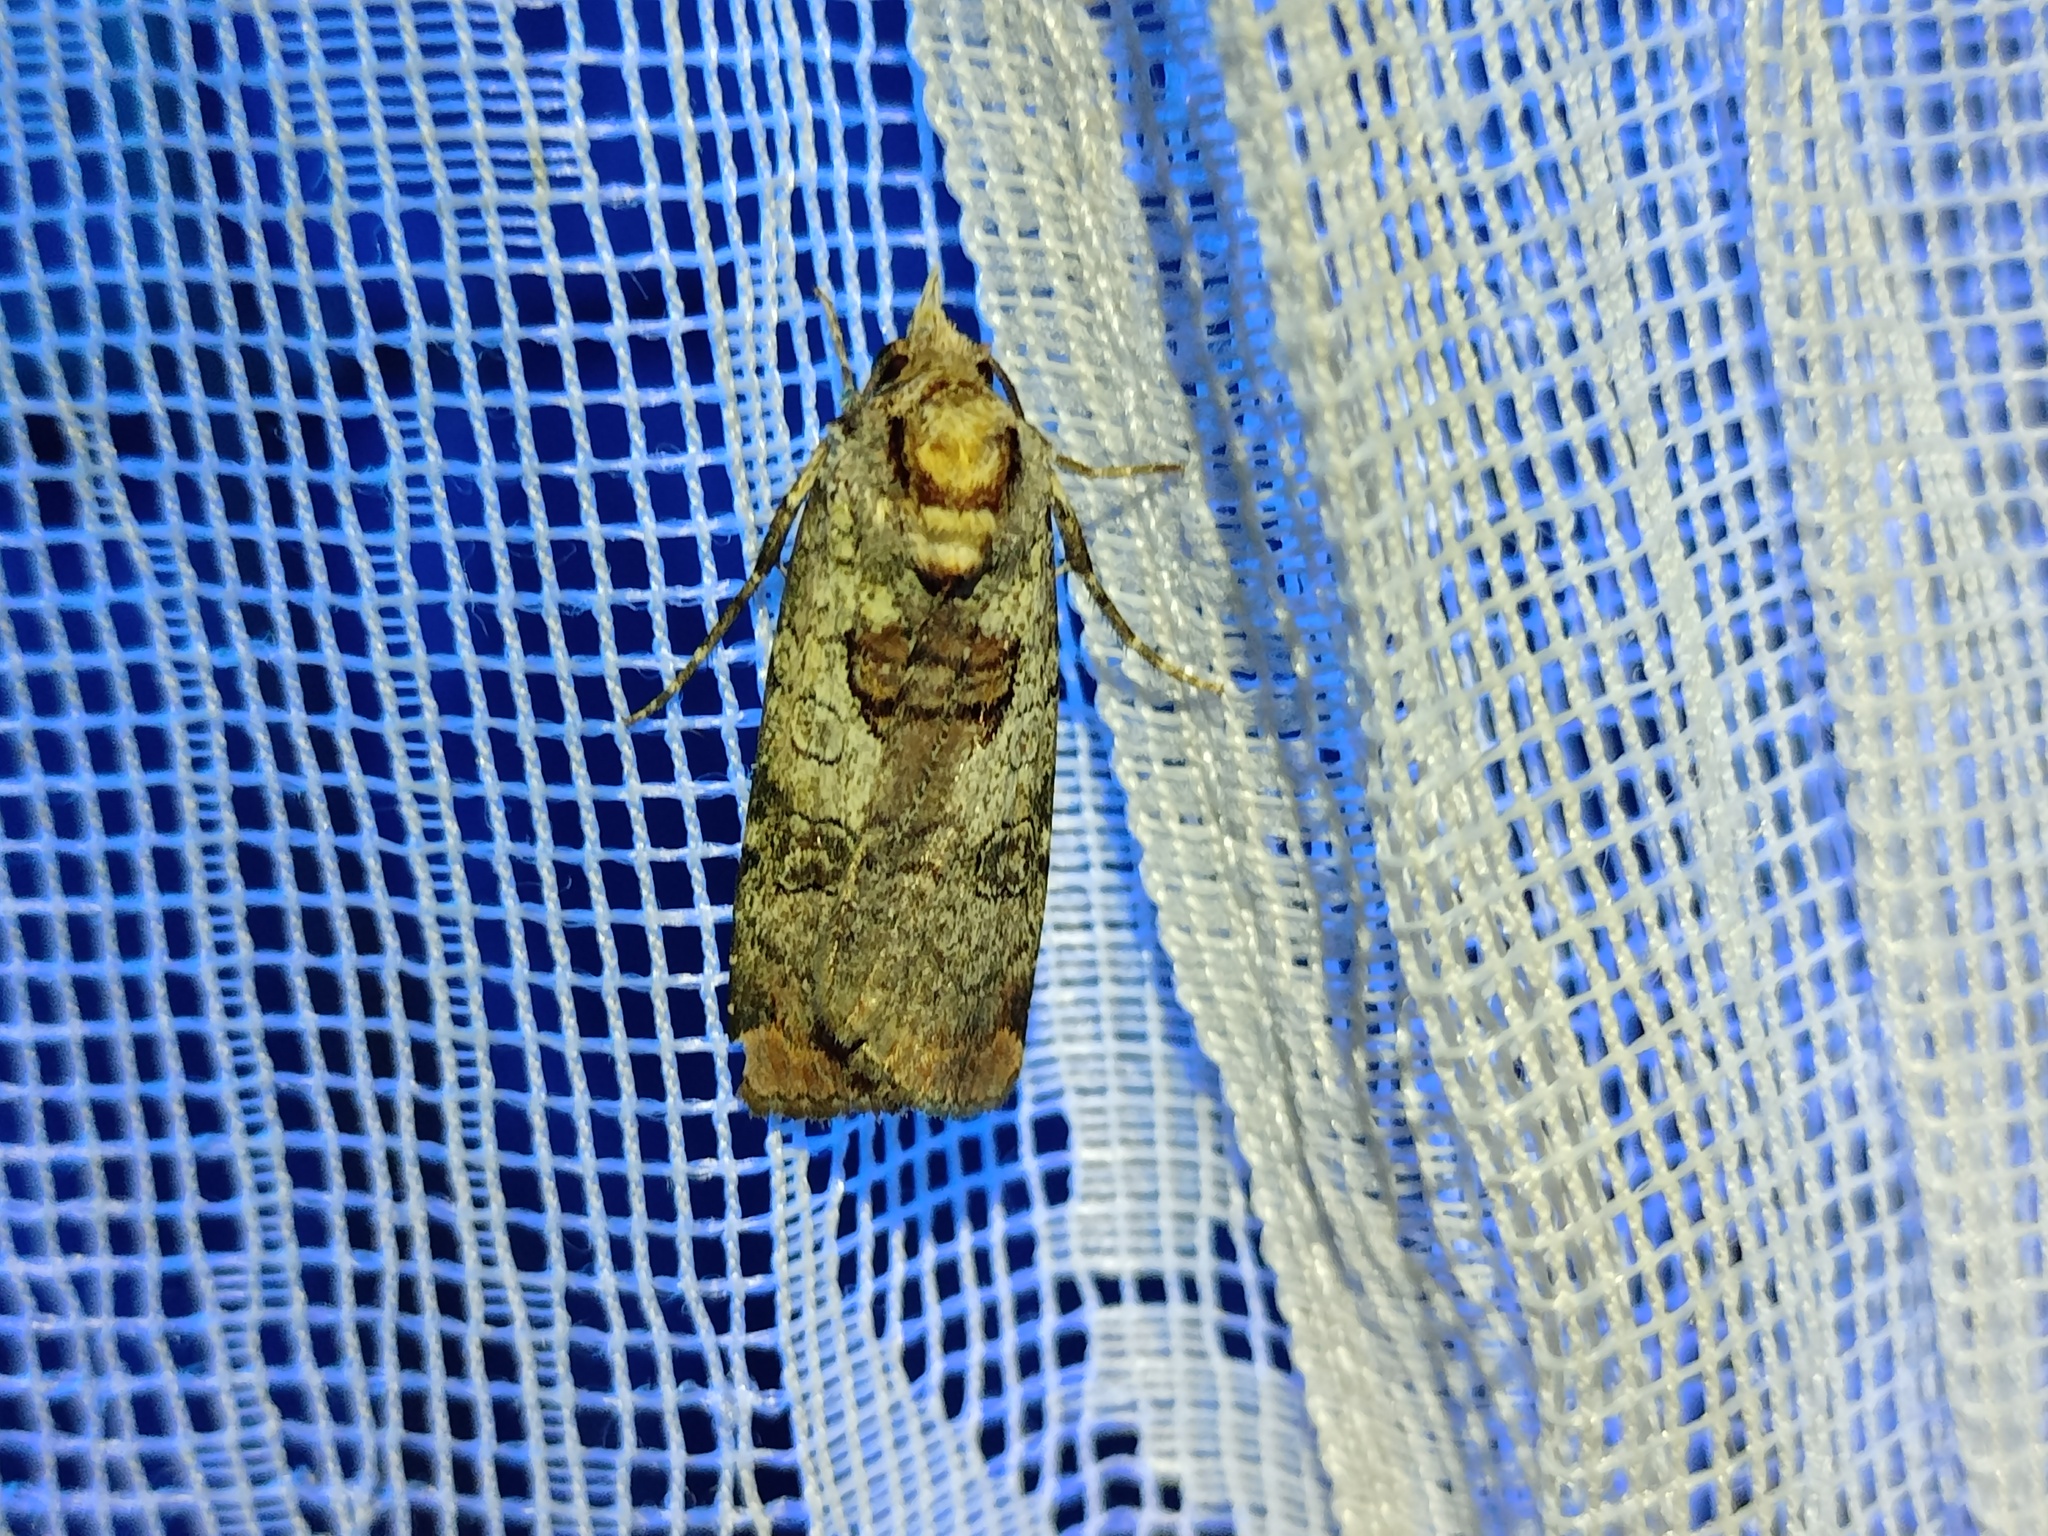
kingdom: Animalia
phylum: Arthropoda
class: Insecta
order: Lepidoptera
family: Noctuidae
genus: Epilecta
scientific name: Epilecta linogrisea
